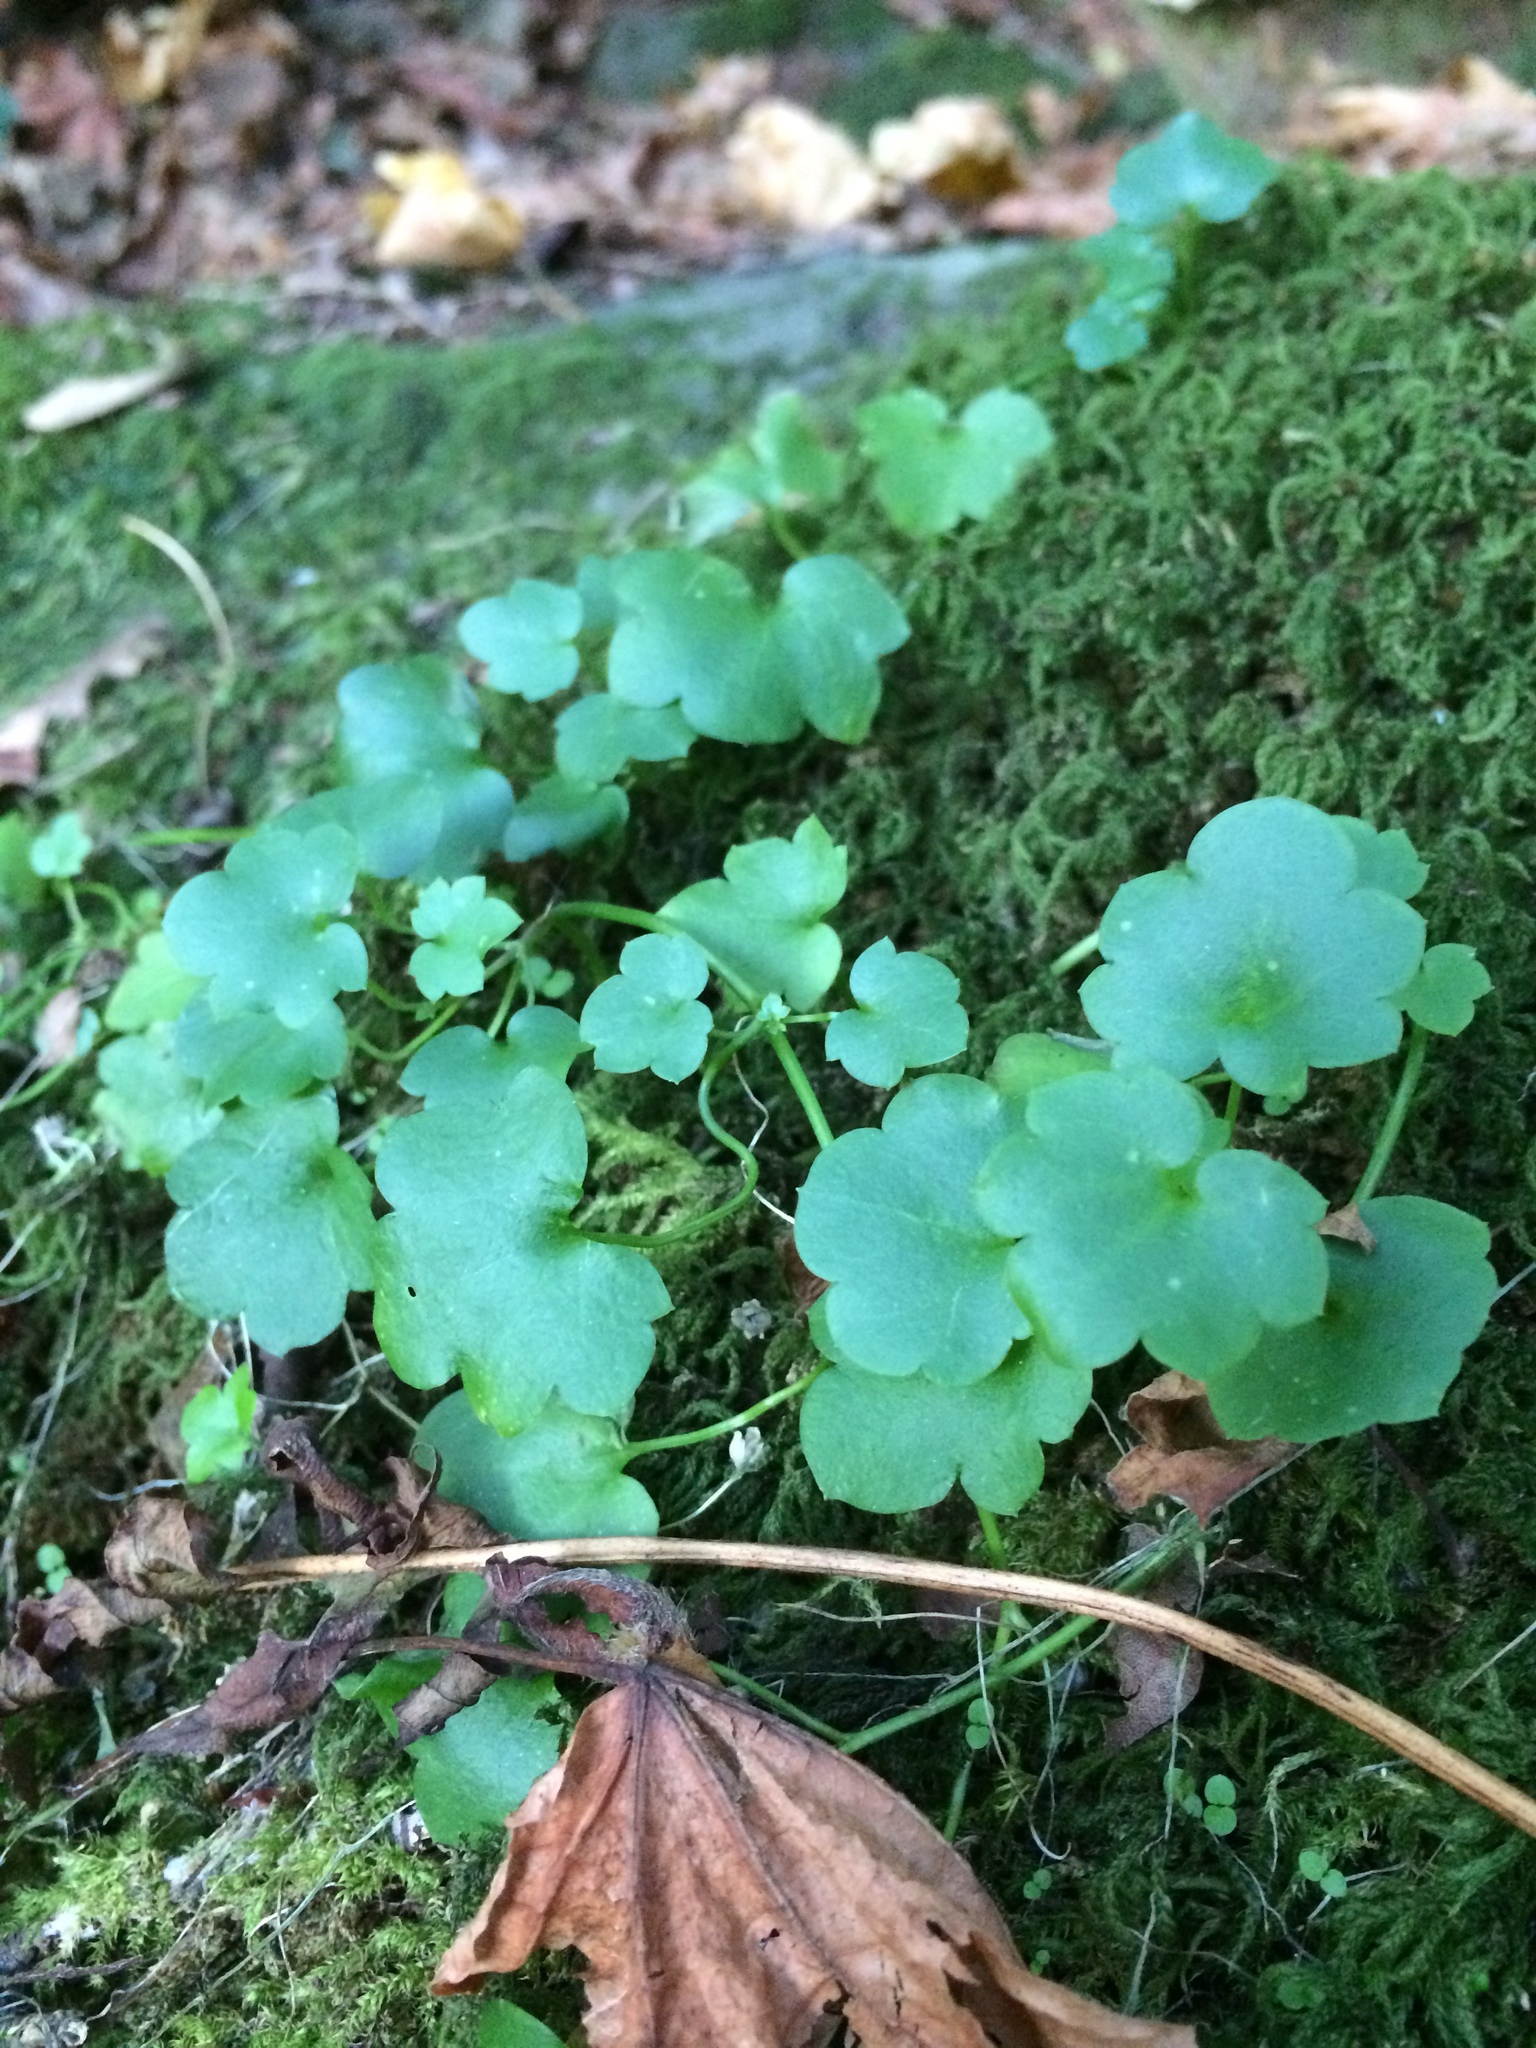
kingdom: Plantae
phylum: Tracheophyta
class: Magnoliopsida
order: Lamiales
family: Plantaginaceae
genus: Cymbalaria
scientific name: Cymbalaria muralis
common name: Ivy-leaved toadflax
